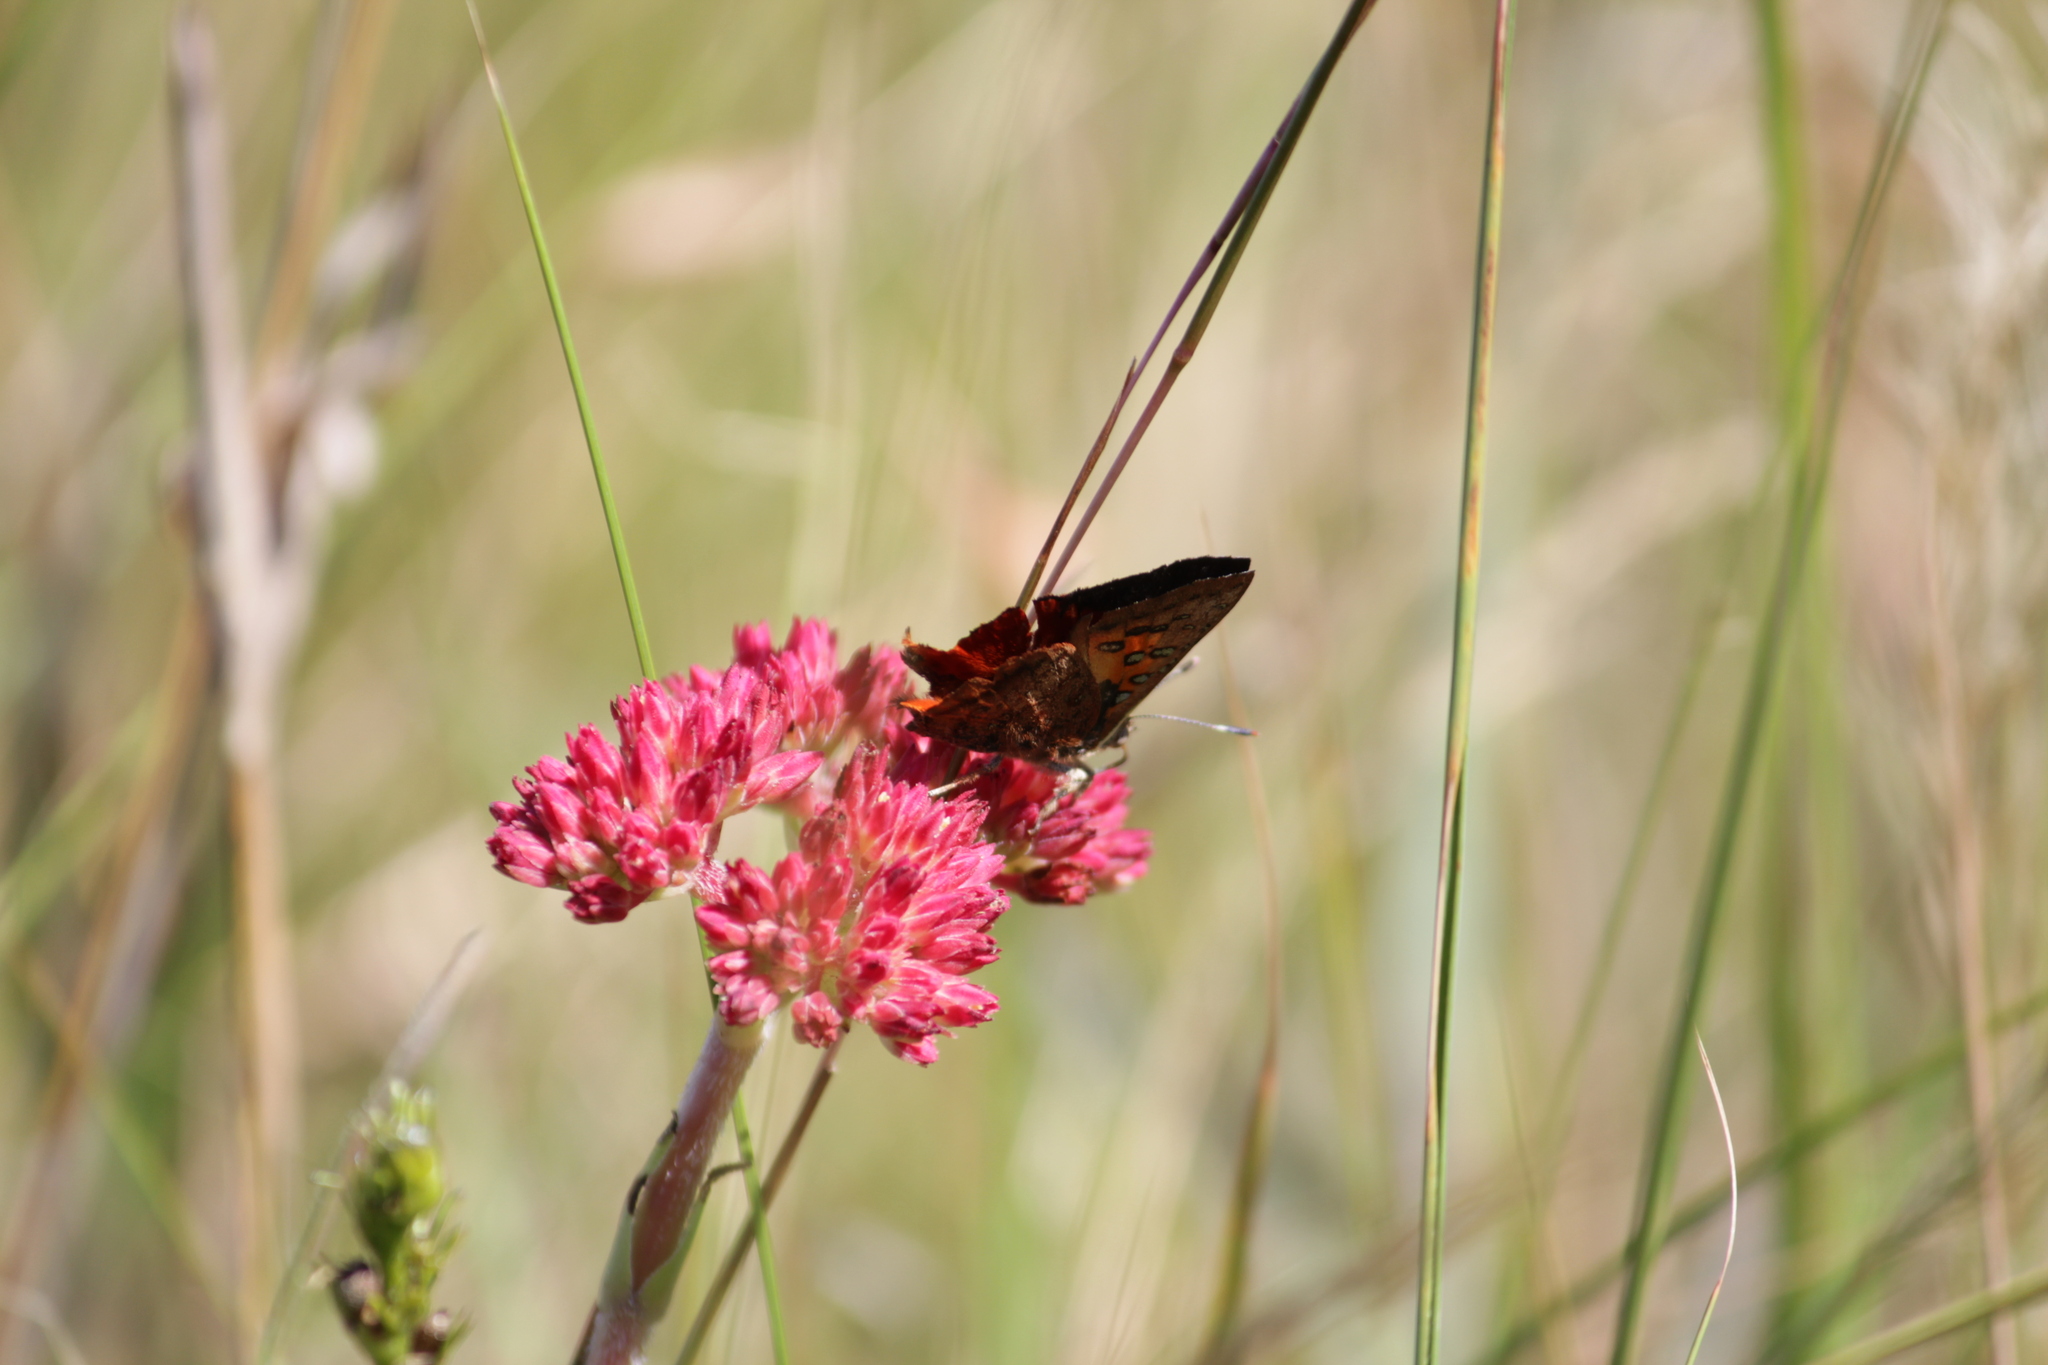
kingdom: Animalia
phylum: Arthropoda
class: Insecta
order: Lepidoptera
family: Lycaenidae
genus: Axiocerses
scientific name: Axiocerses perion
